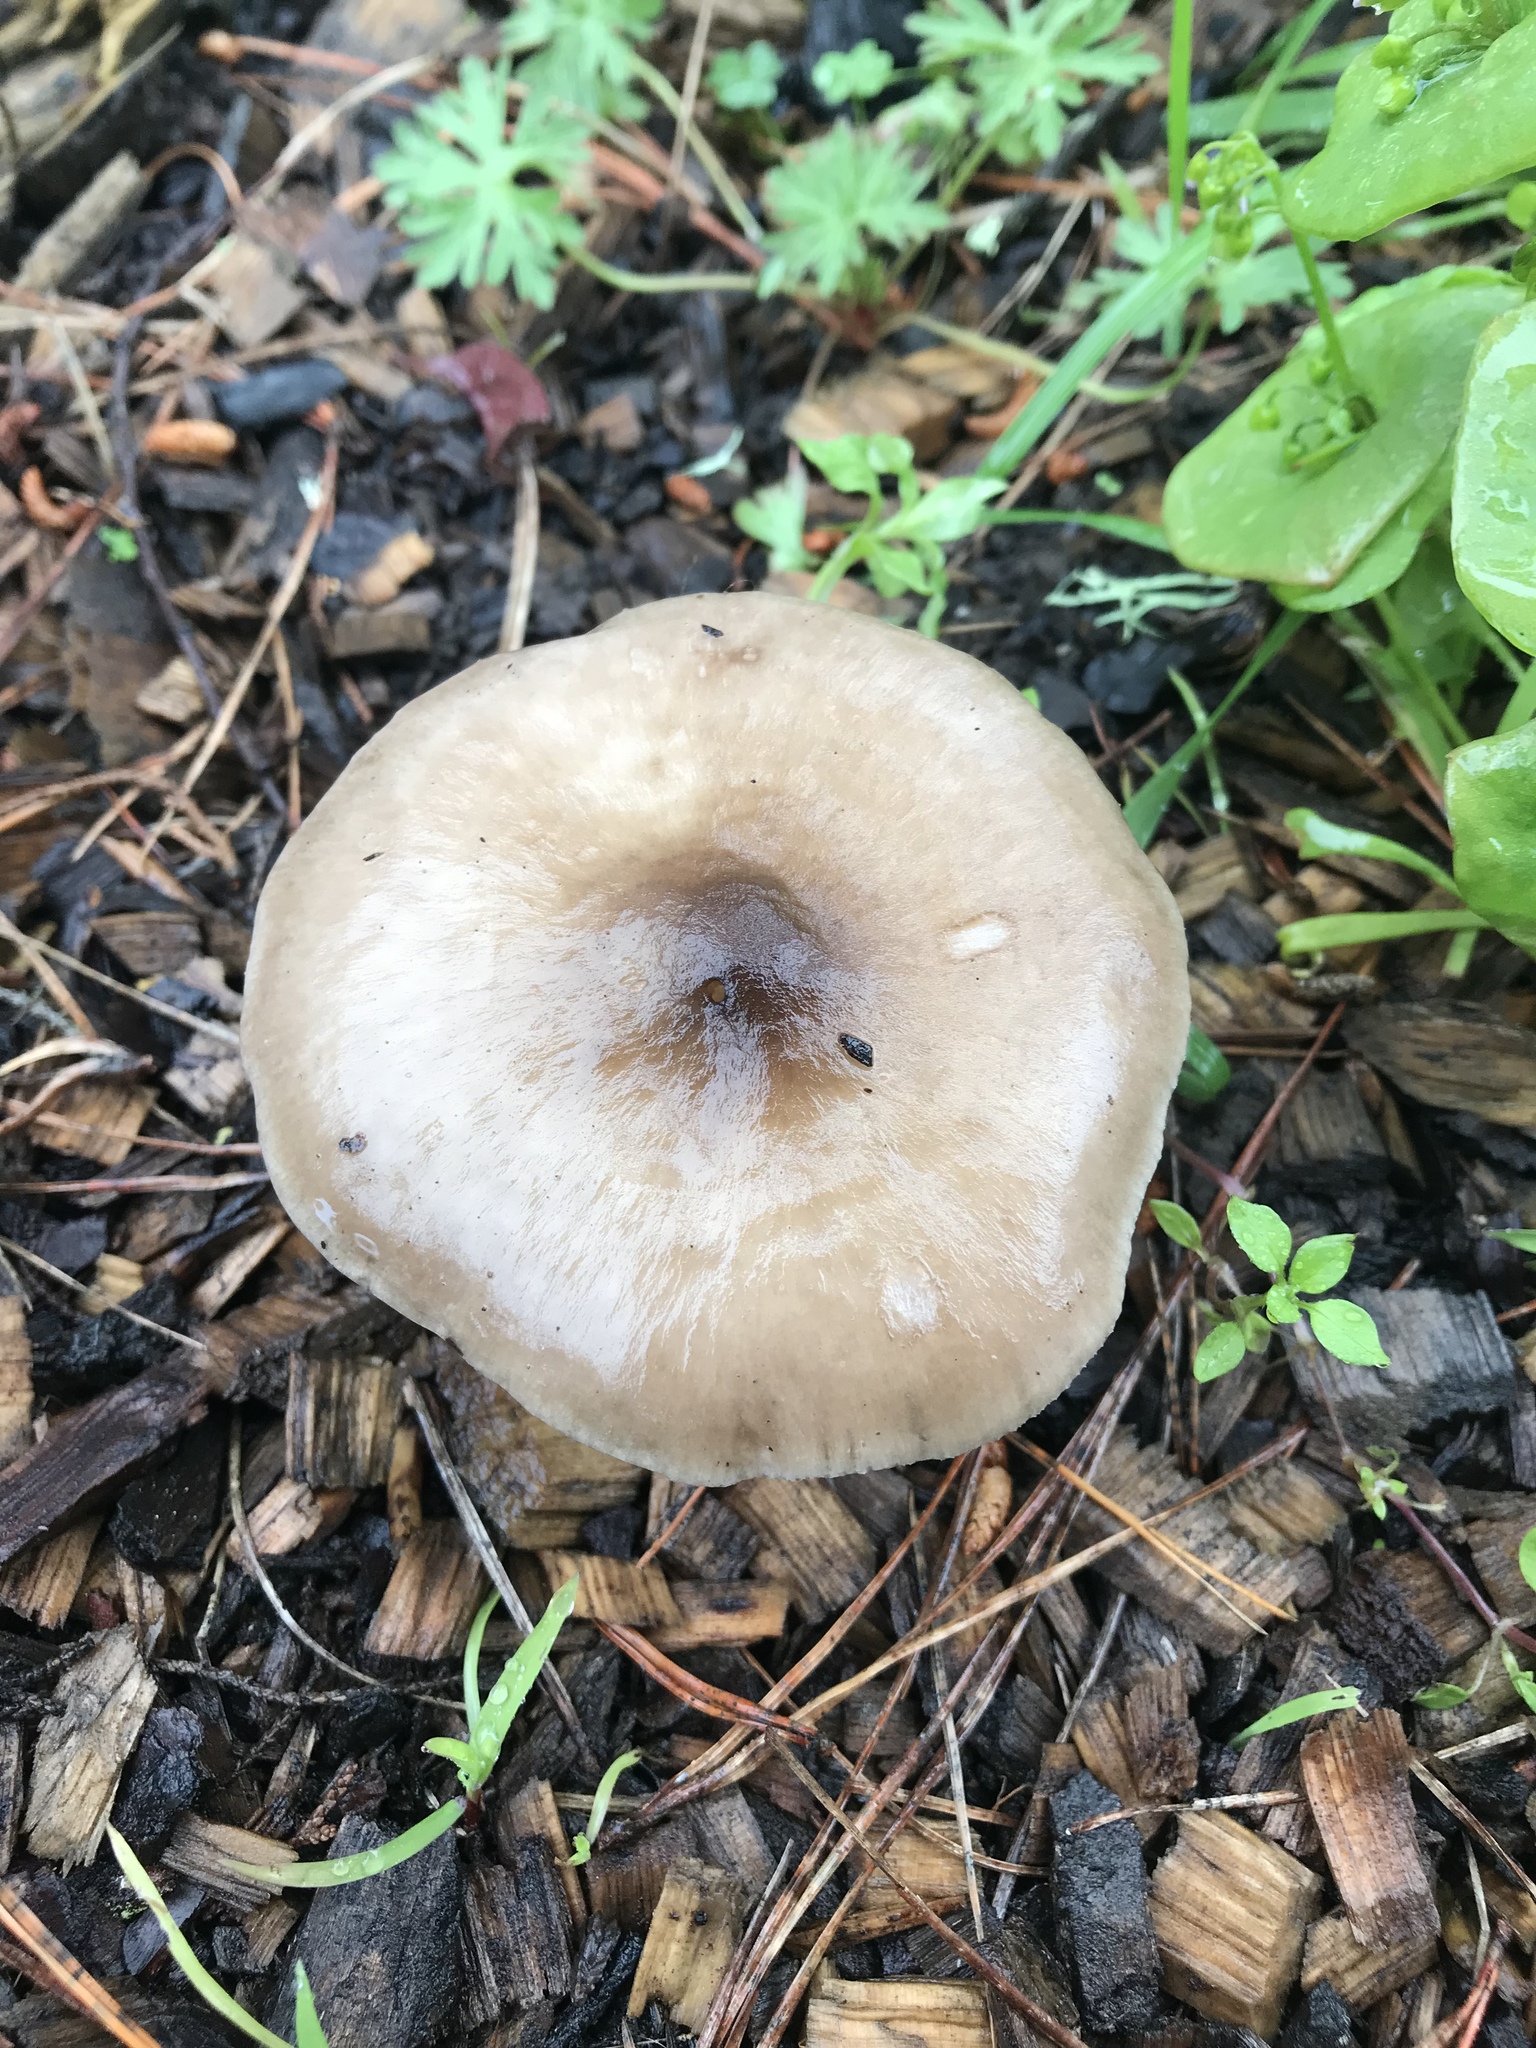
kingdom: Fungi
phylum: Basidiomycota
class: Agaricomycetes
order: Agaricales
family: Pluteaceae
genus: Volvopluteus
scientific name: Volvopluteus gloiocephalus
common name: Stubble rosegill
